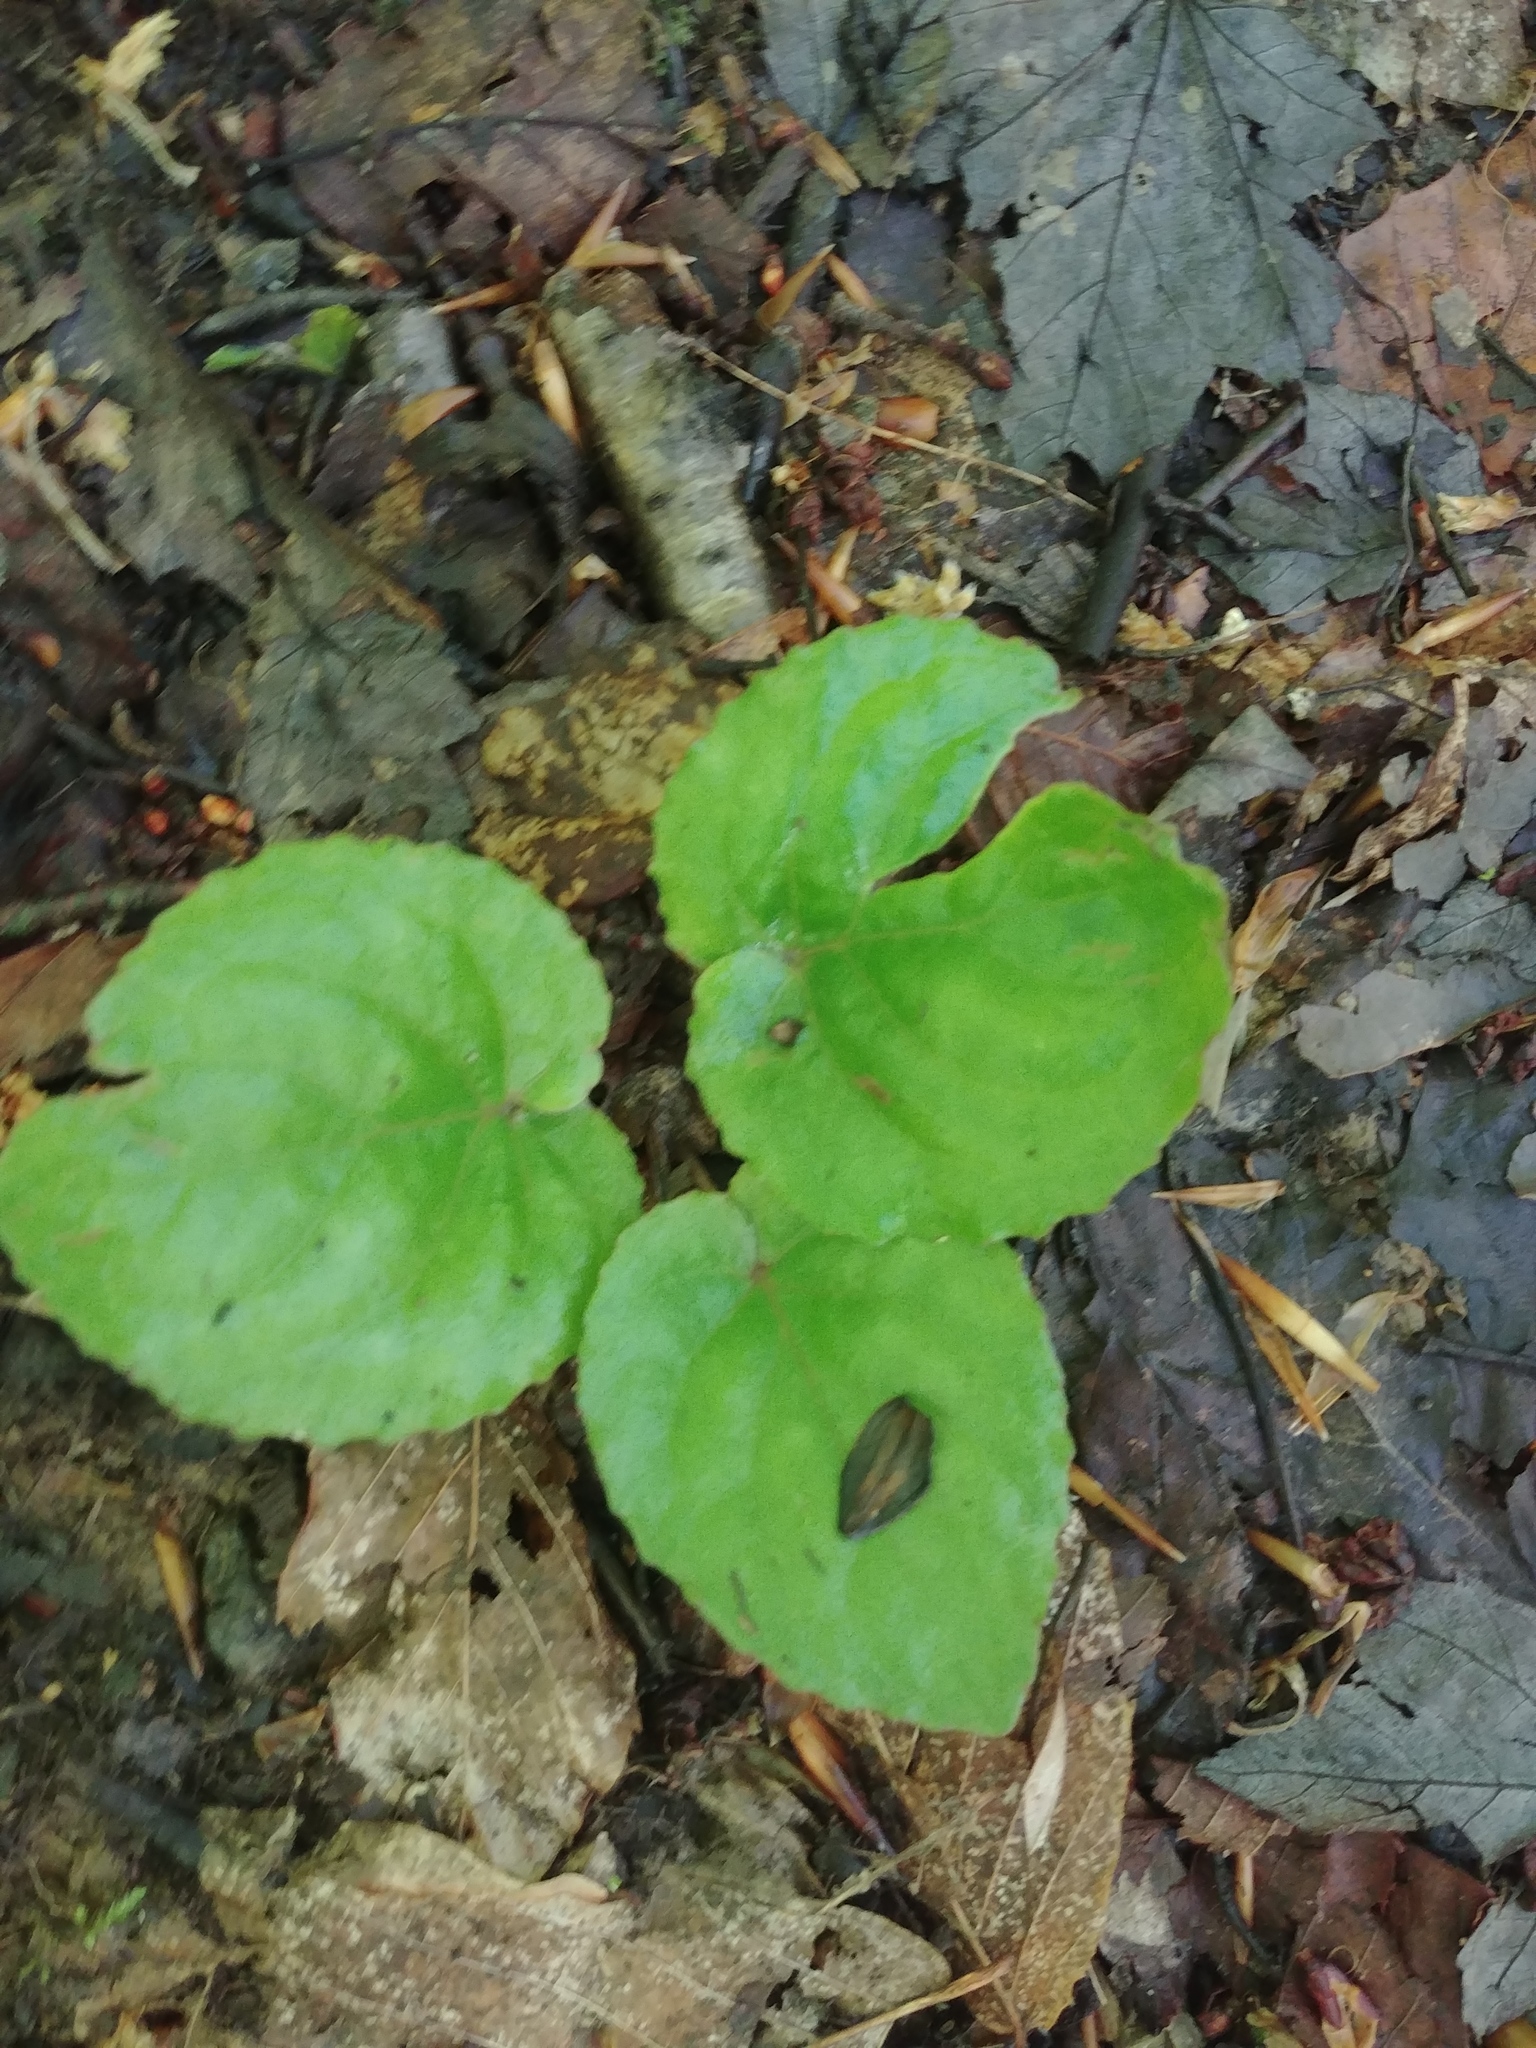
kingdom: Plantae
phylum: Tracheophyta
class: Magnoliopsida
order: Malpighiales
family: Violaceae
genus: Viola
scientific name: Viola rotundifolia
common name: Early yellow violet
